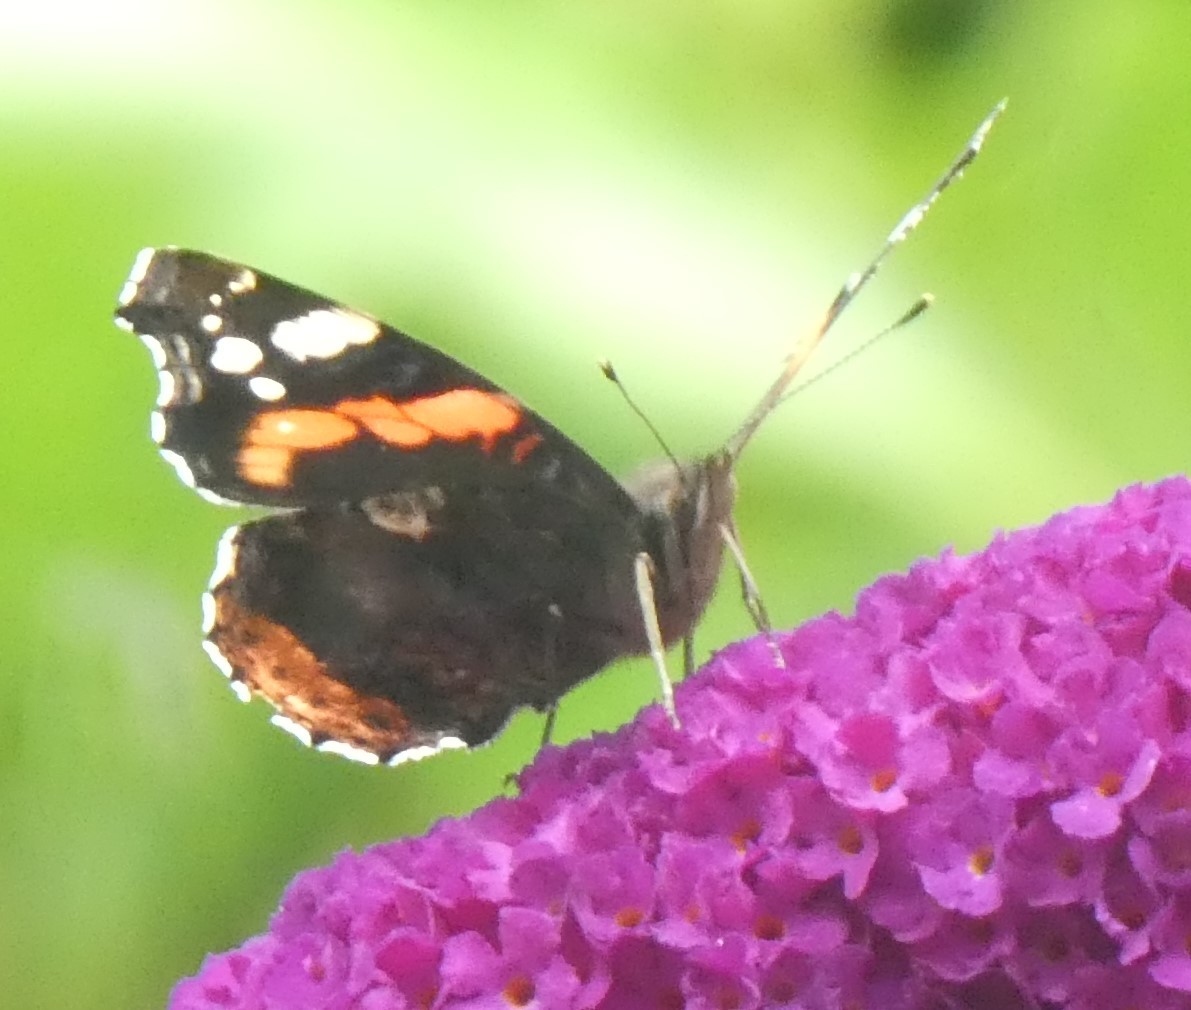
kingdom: Animalia
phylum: Arthropoda
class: Insecta
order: Lepidoptera
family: Nymphalidae
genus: Vanessa
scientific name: Vanessa atalanta
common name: Red admiral
